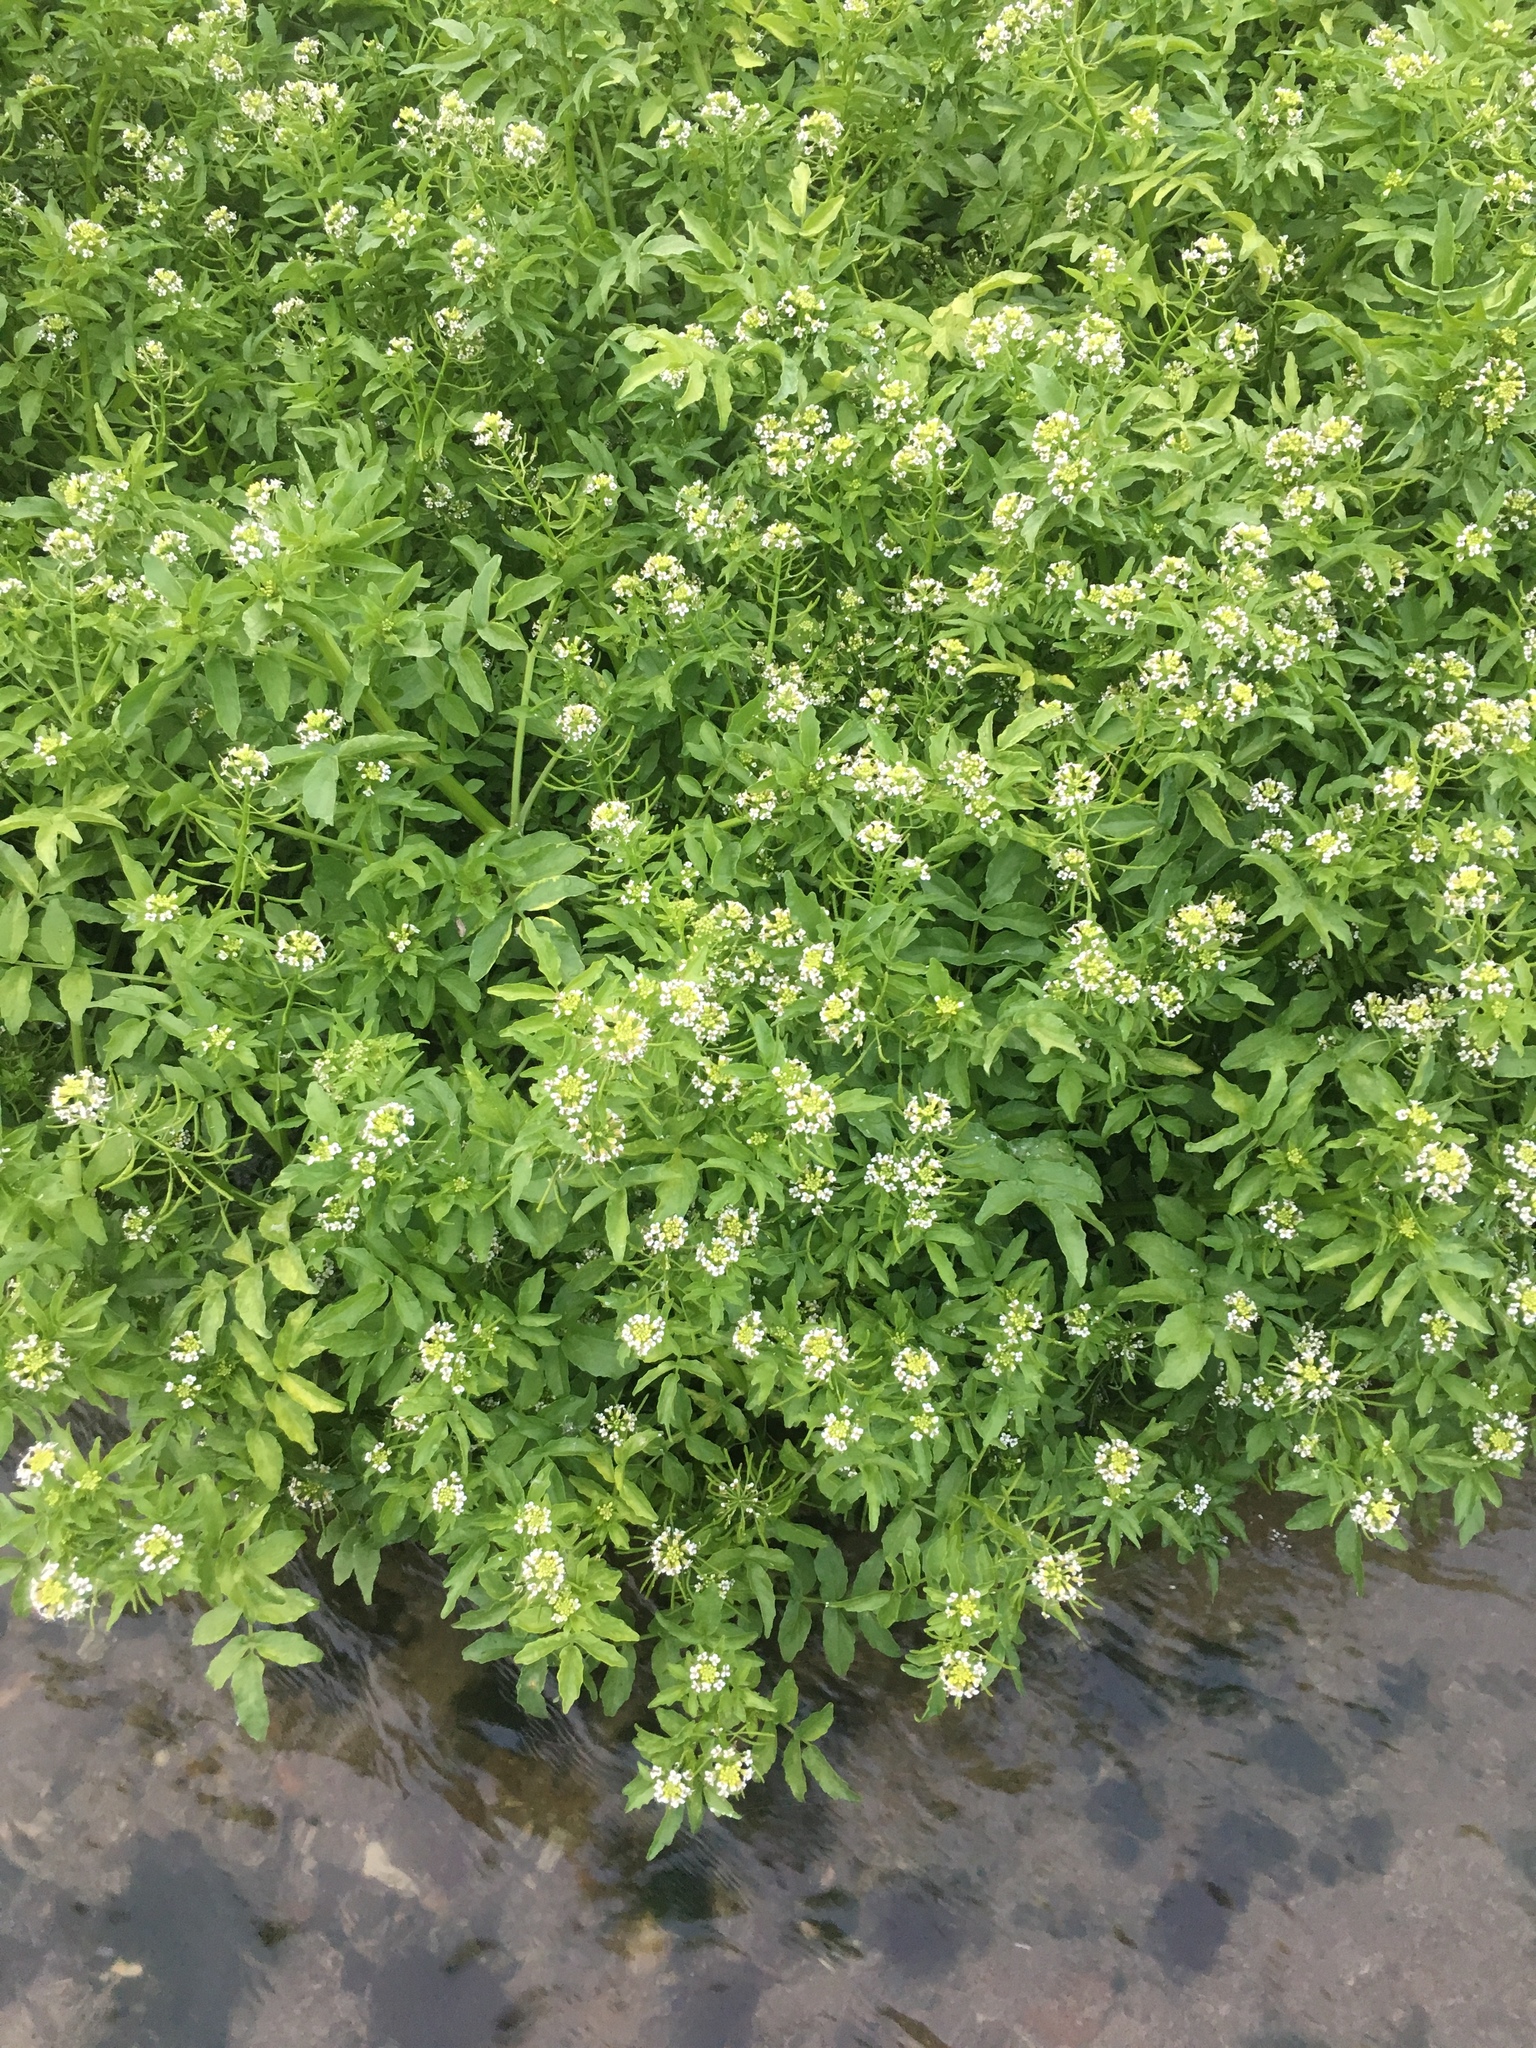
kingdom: Plantae
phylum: Tracheophyta
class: Magnoliopsida
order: Brassicales
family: Brassicaceae
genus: Nasturtium
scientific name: Nasturtium officinale
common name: Watercress
